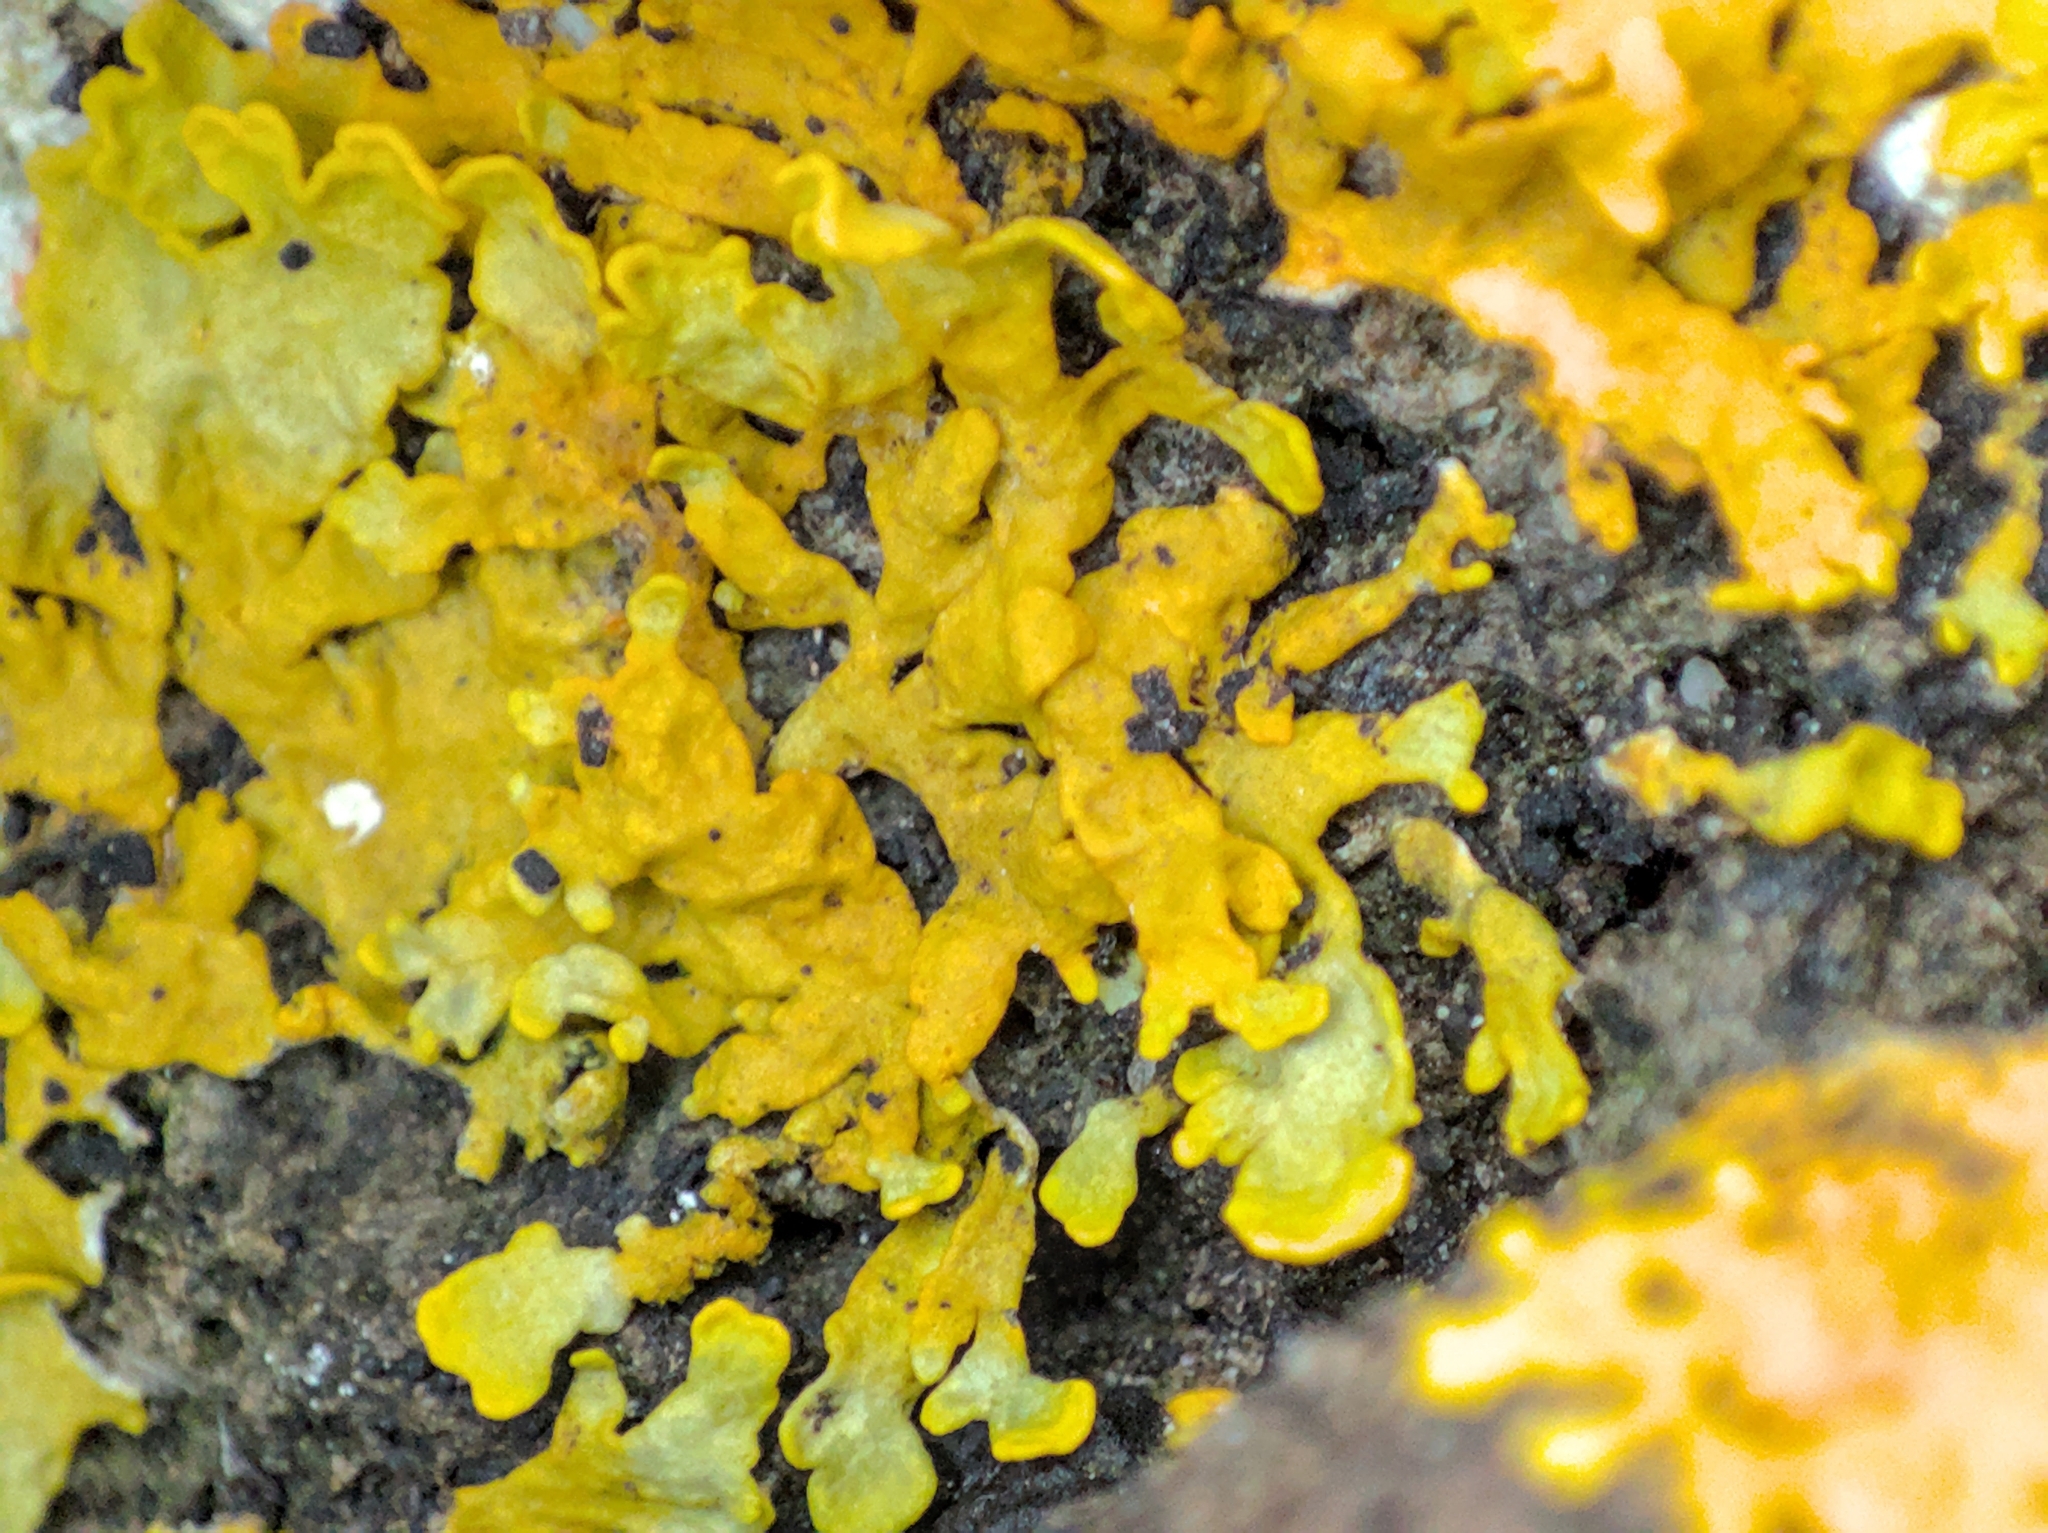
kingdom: Fungi
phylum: Ascomycota
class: Lecanoromycetes
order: Teloschistales
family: Teloschistaceae
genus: Xanthoria
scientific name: Xanthoria aureola
